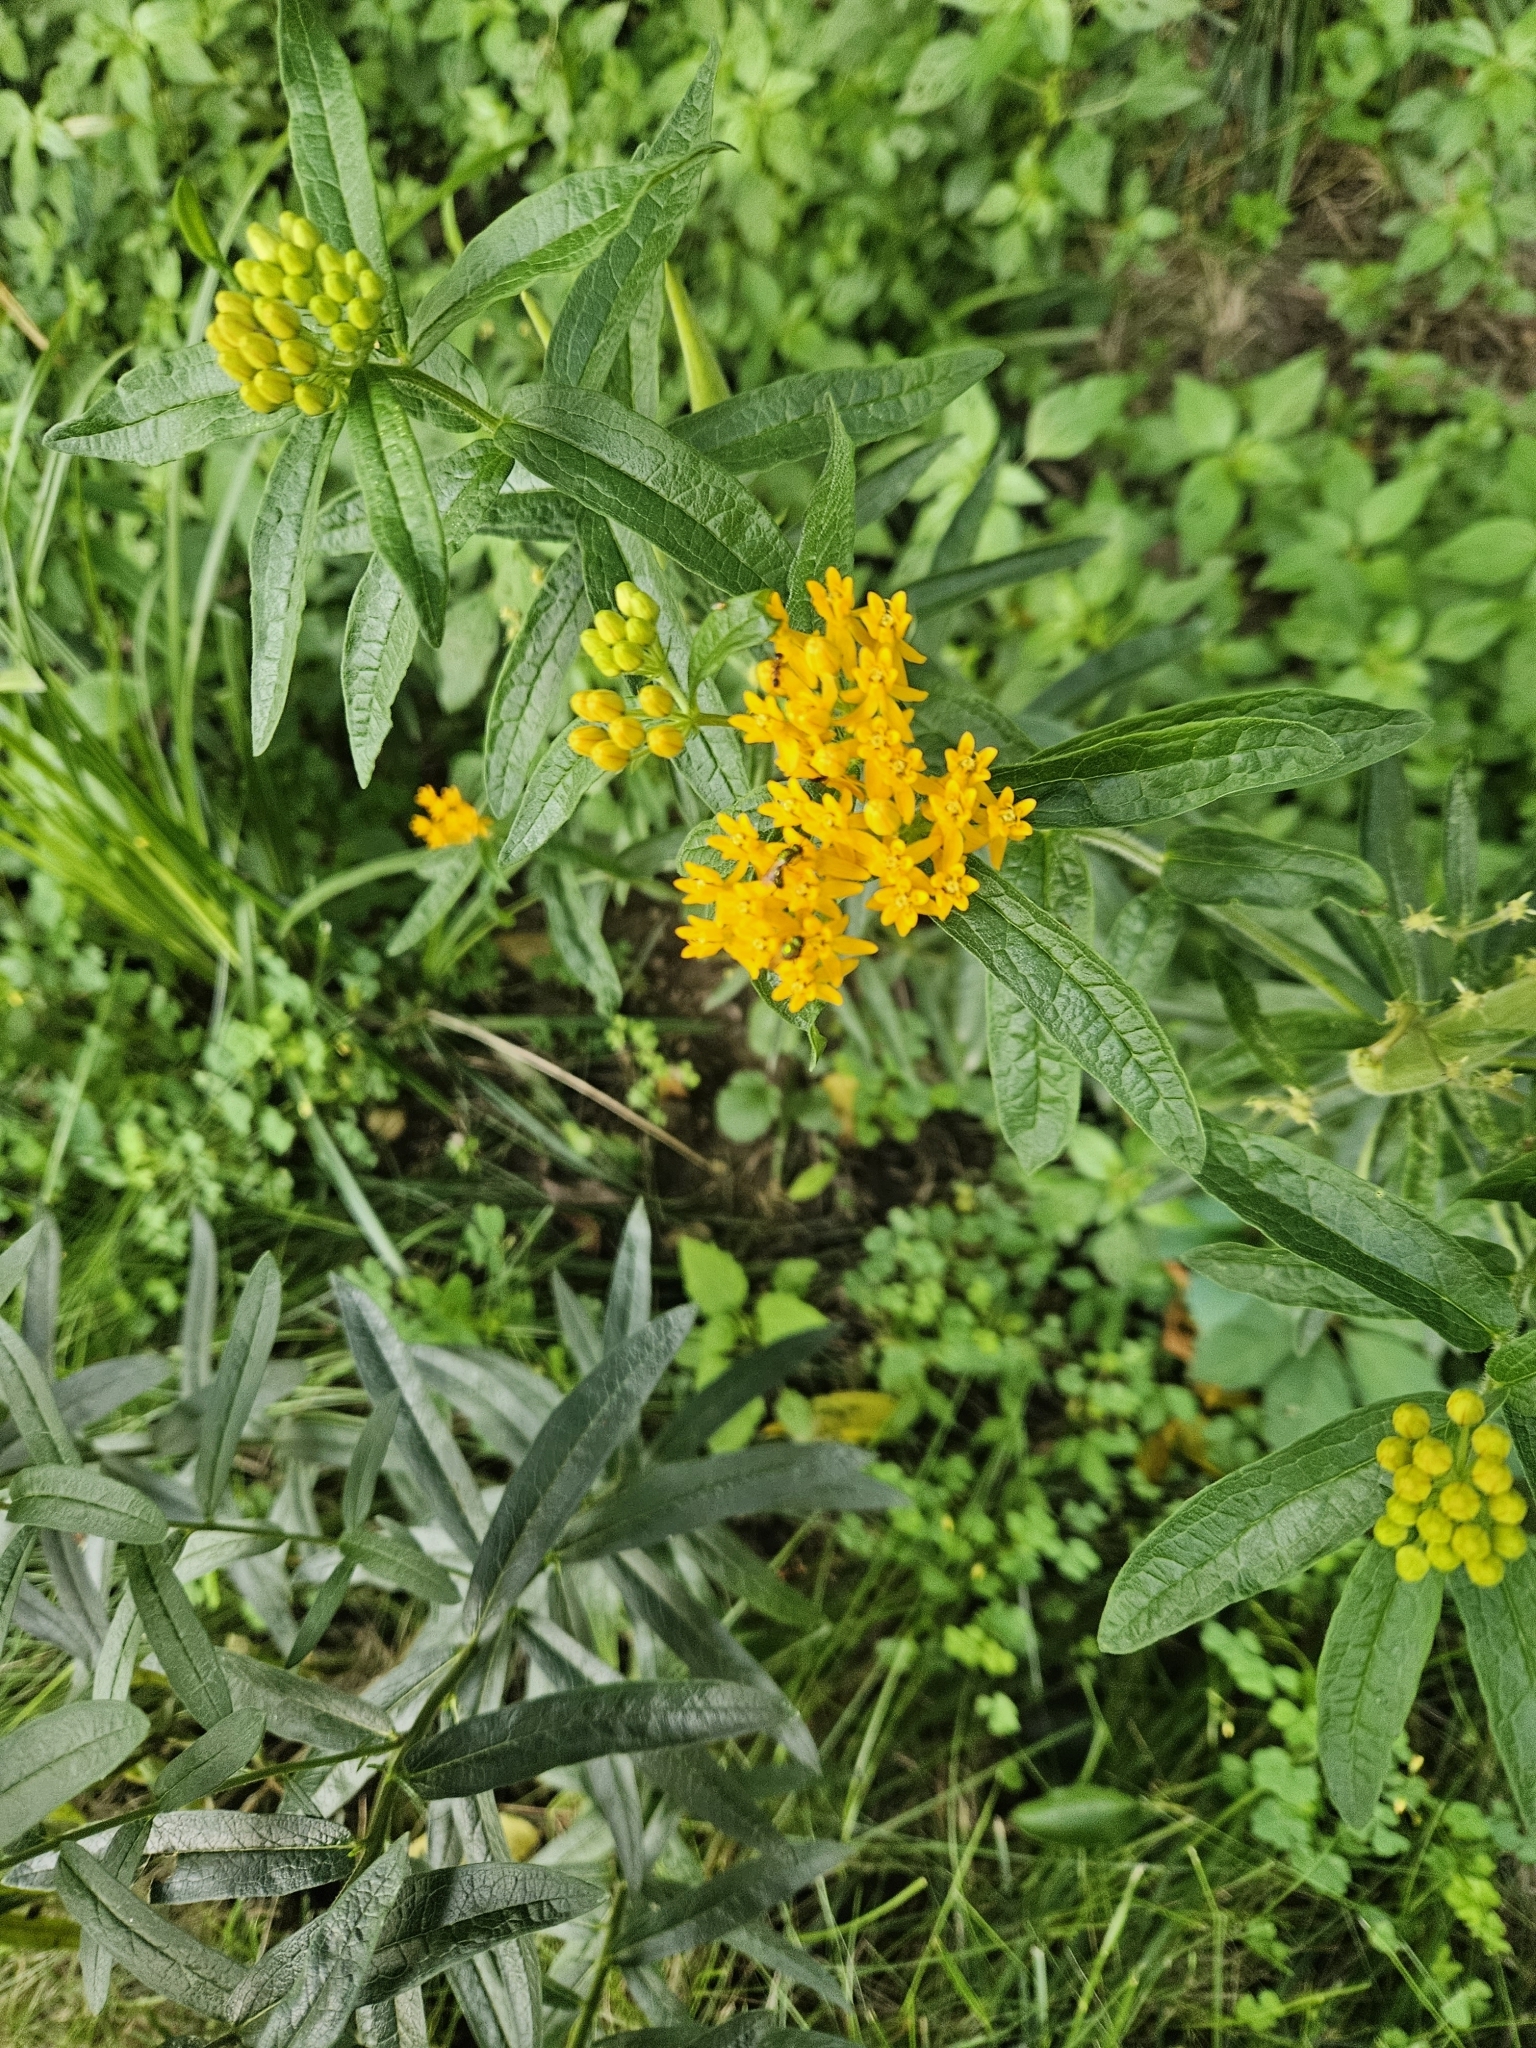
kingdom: Plantae
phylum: Tracheophyta
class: Magnoliopsida
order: Gentianales
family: Apocynaceae
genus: Asclepias
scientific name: Asclepias tuberosa
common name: Butterfly milkweed
